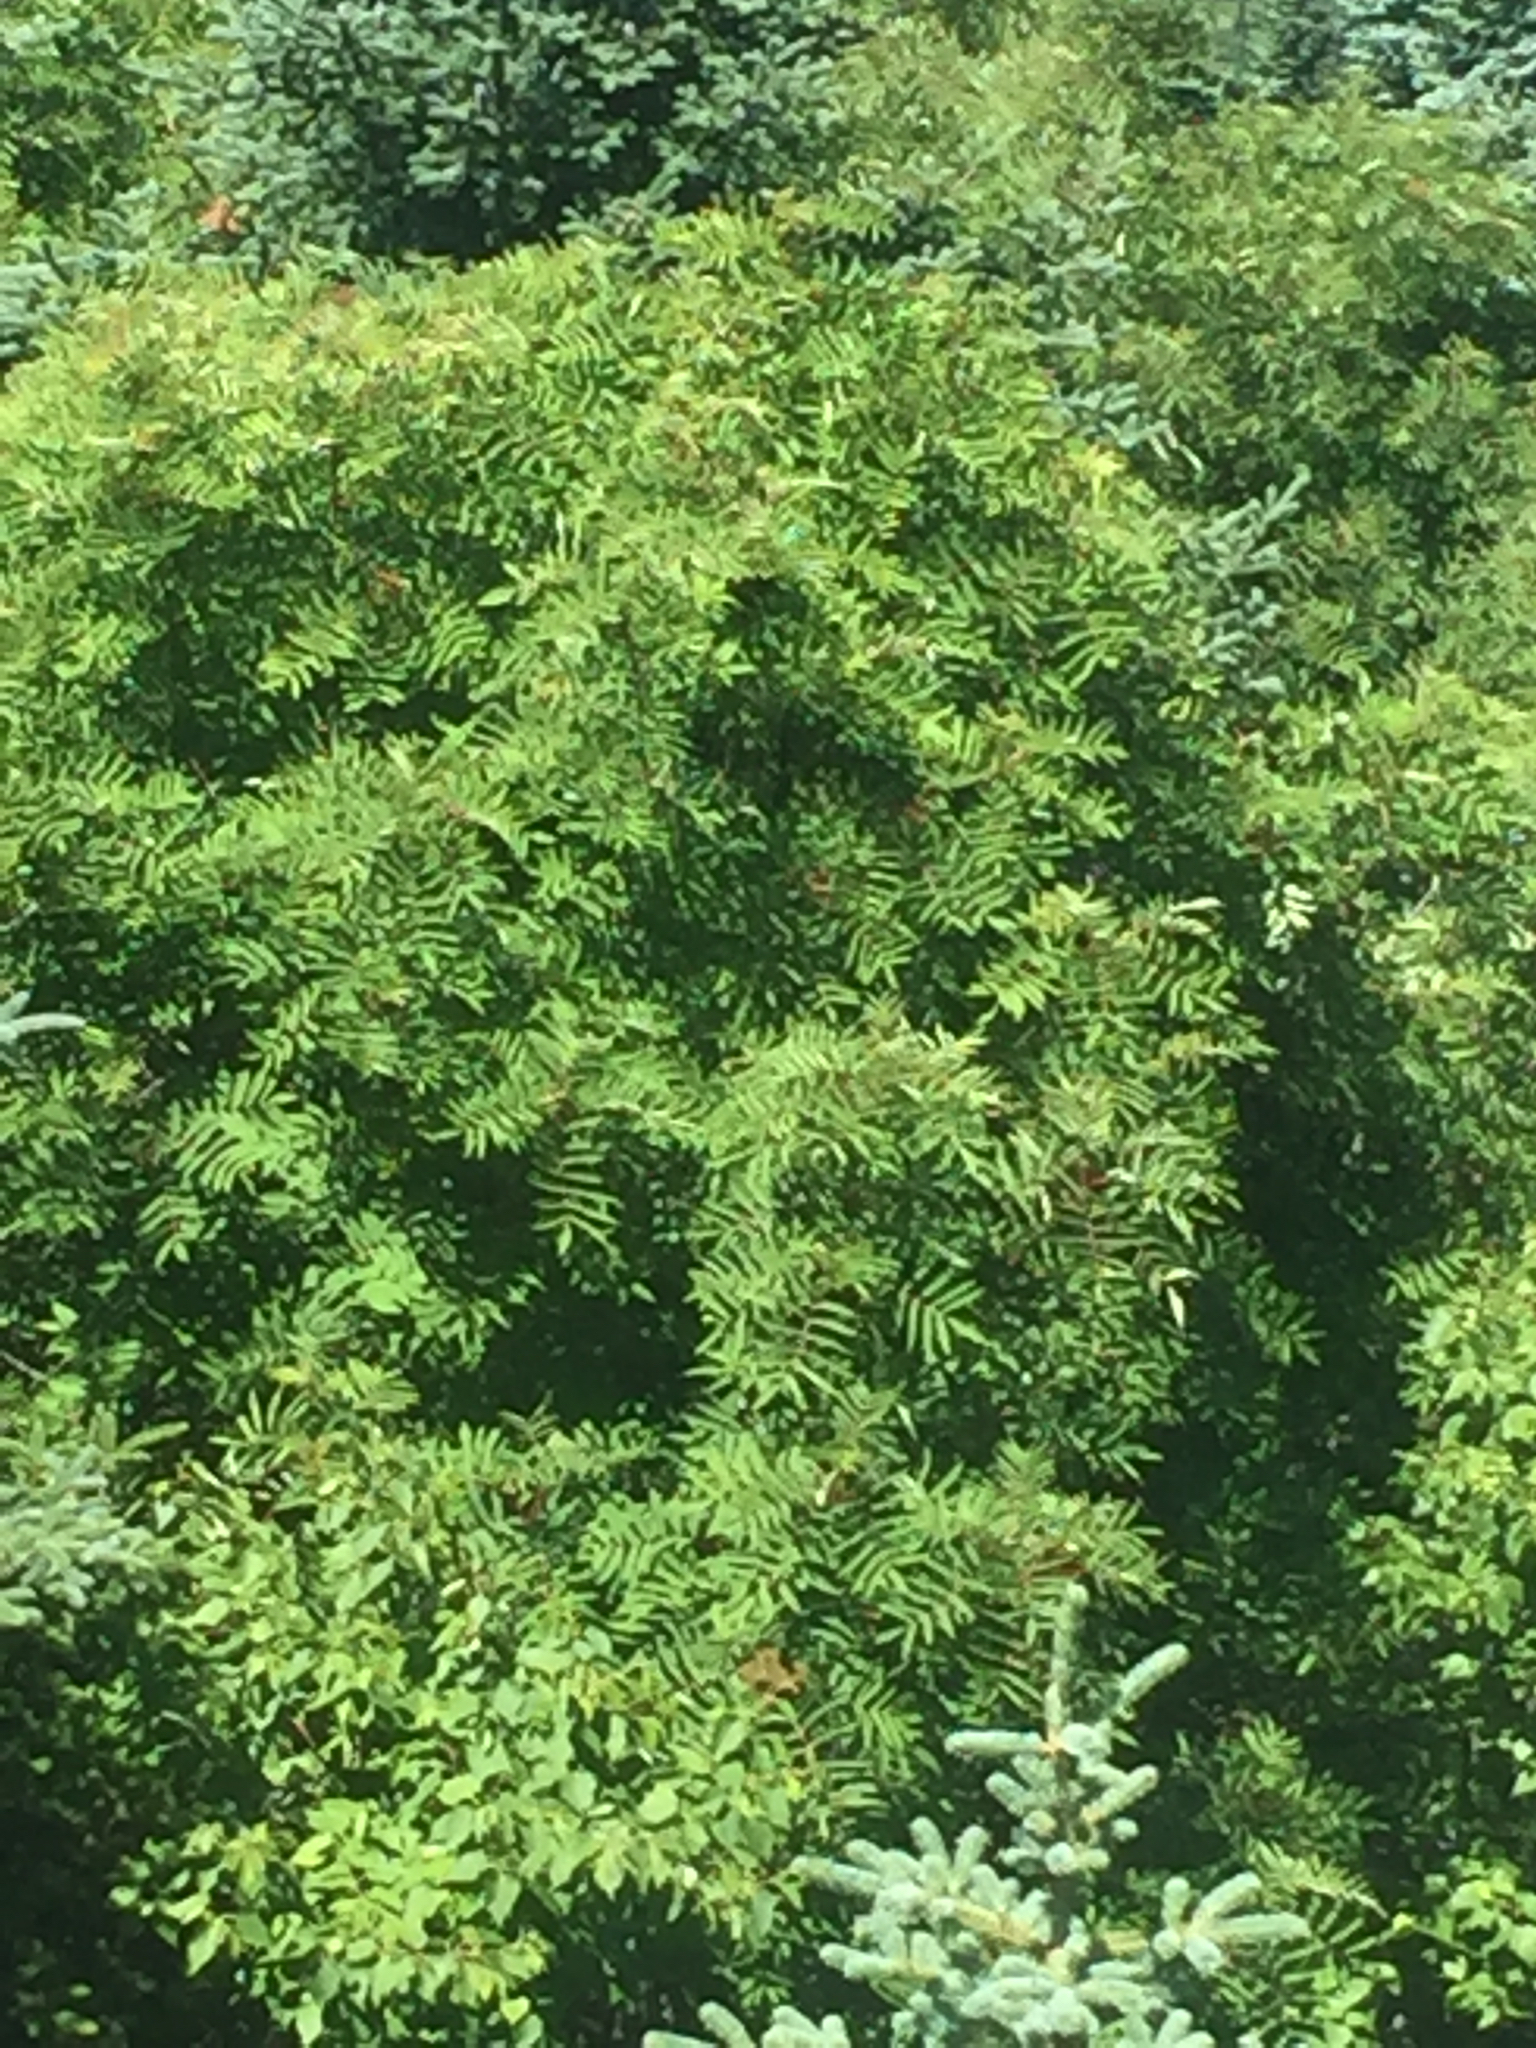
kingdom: Plantae
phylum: Tracheophyta
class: Magnoliopsida
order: Rosales
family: Rosaceae
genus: Sorbus
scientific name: Sorbus americana
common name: American mountain-ash
